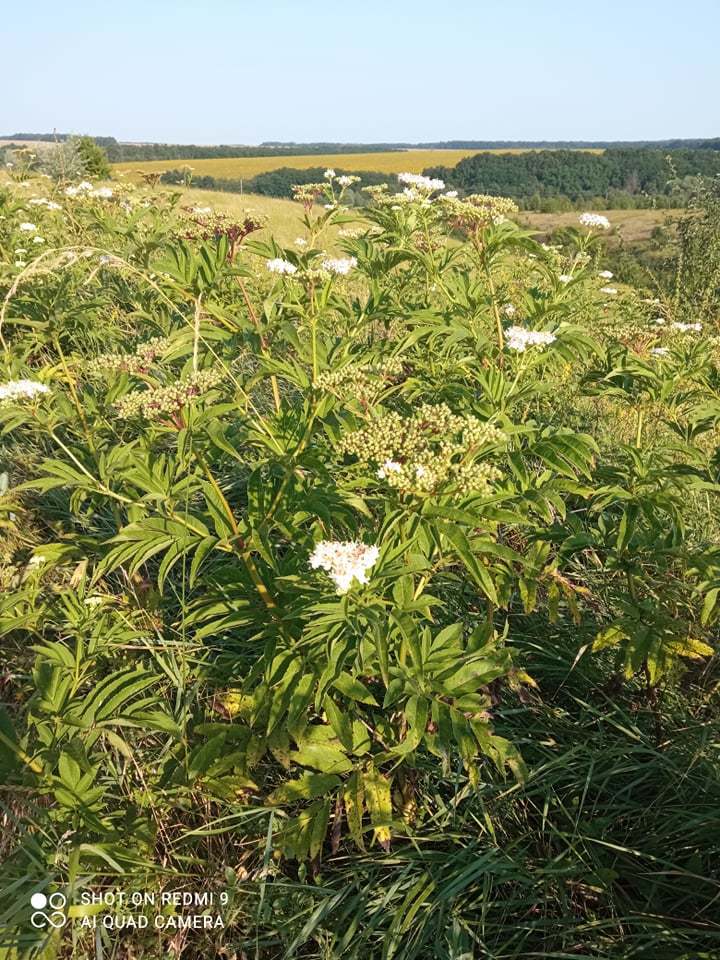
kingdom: Plantae
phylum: Tracheophyta
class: Magnoliopsida
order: Dipsacales
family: Viburnaceae
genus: Sambucus
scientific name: Sambucus ebulus
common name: Dwarf elder
